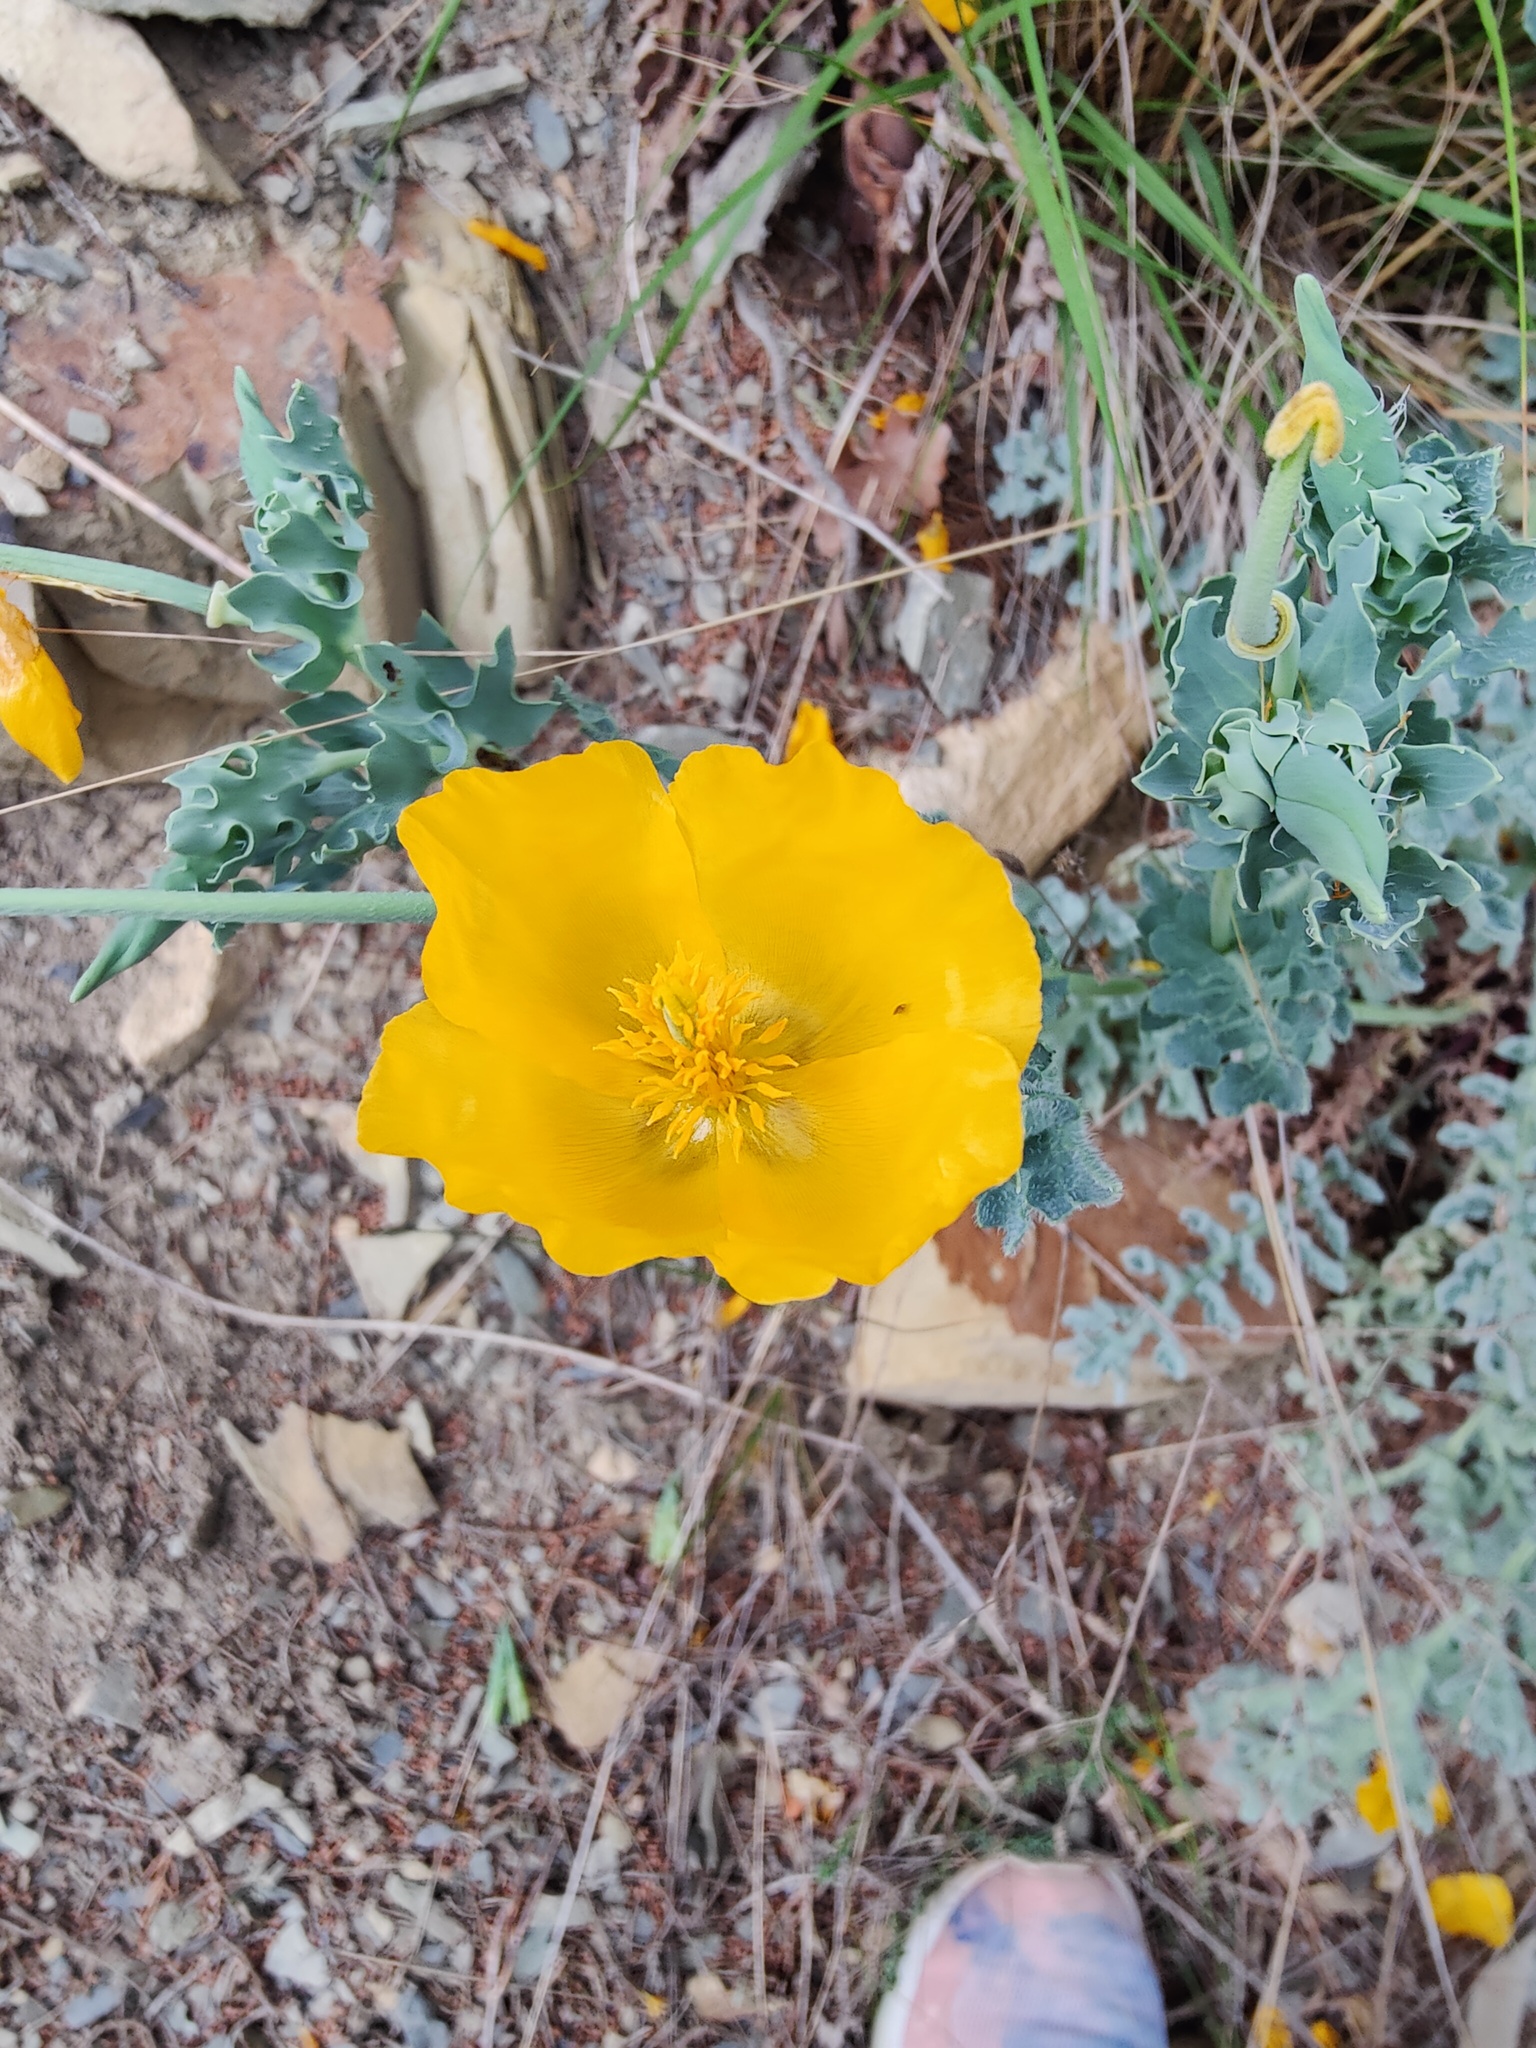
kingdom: Plantae
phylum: Tracheophyta
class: Magnoliopsida
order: Ranunculales
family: Papaveraceae
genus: Glaucium
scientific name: Glaucium flavum
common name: Yellow horned-poppy
